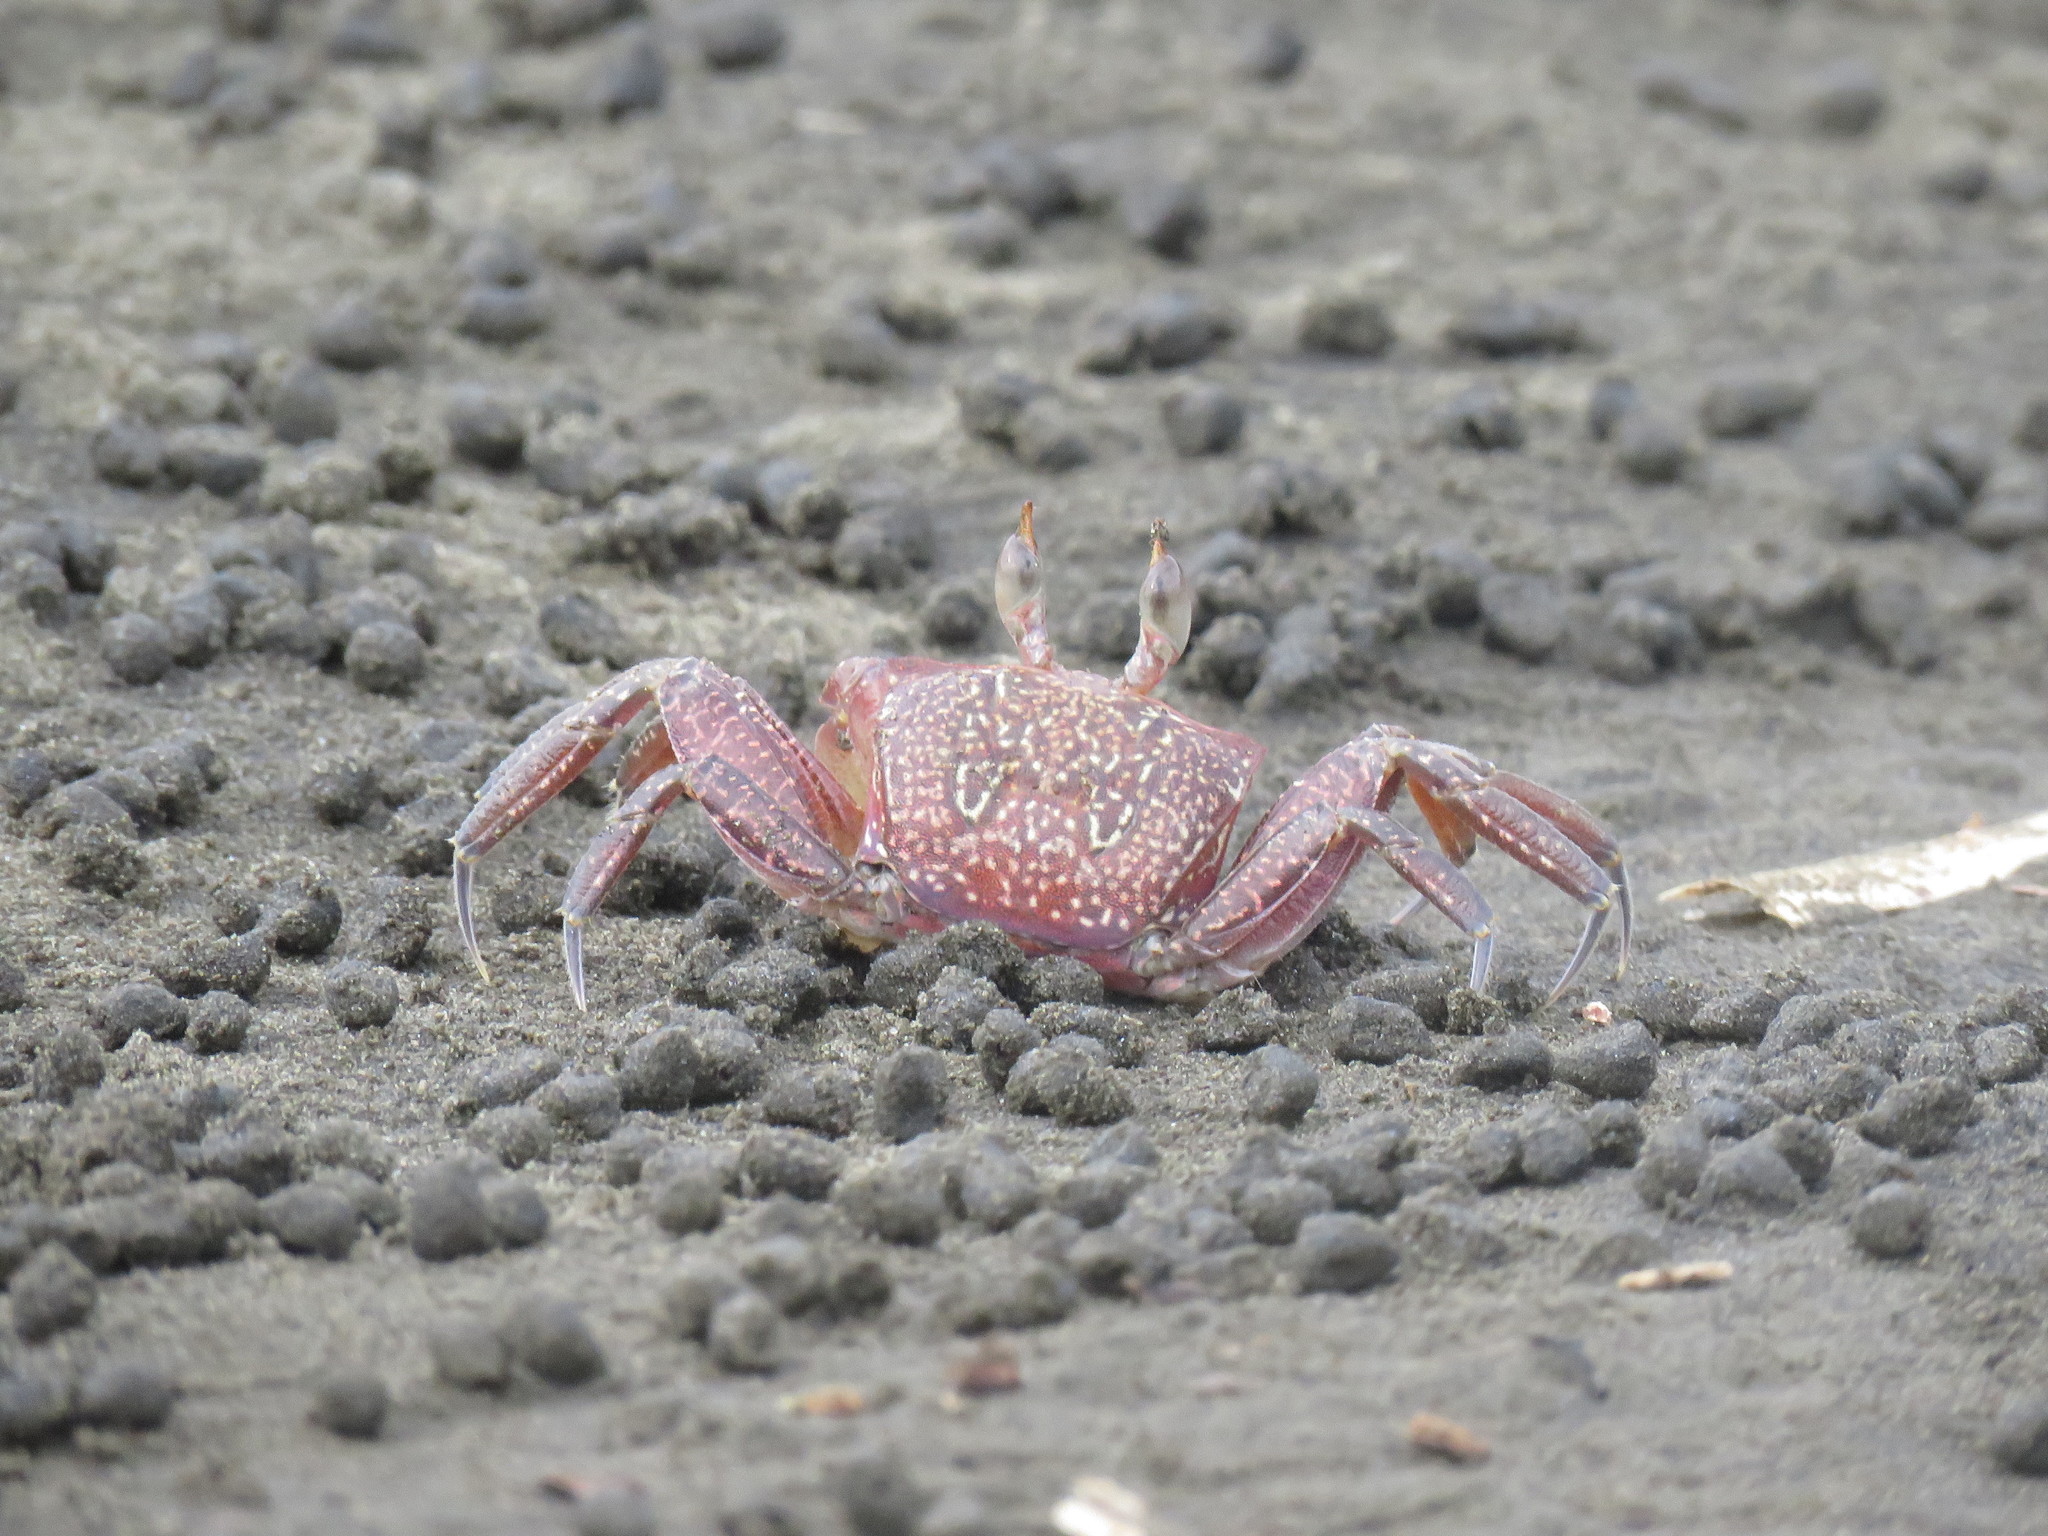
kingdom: Animalia
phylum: Arthropoda
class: Malacostraca
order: Decapoda
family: Ocypodidae
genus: Ocypode
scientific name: Ocypode gaudichaudii
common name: Pacific ghost crab
